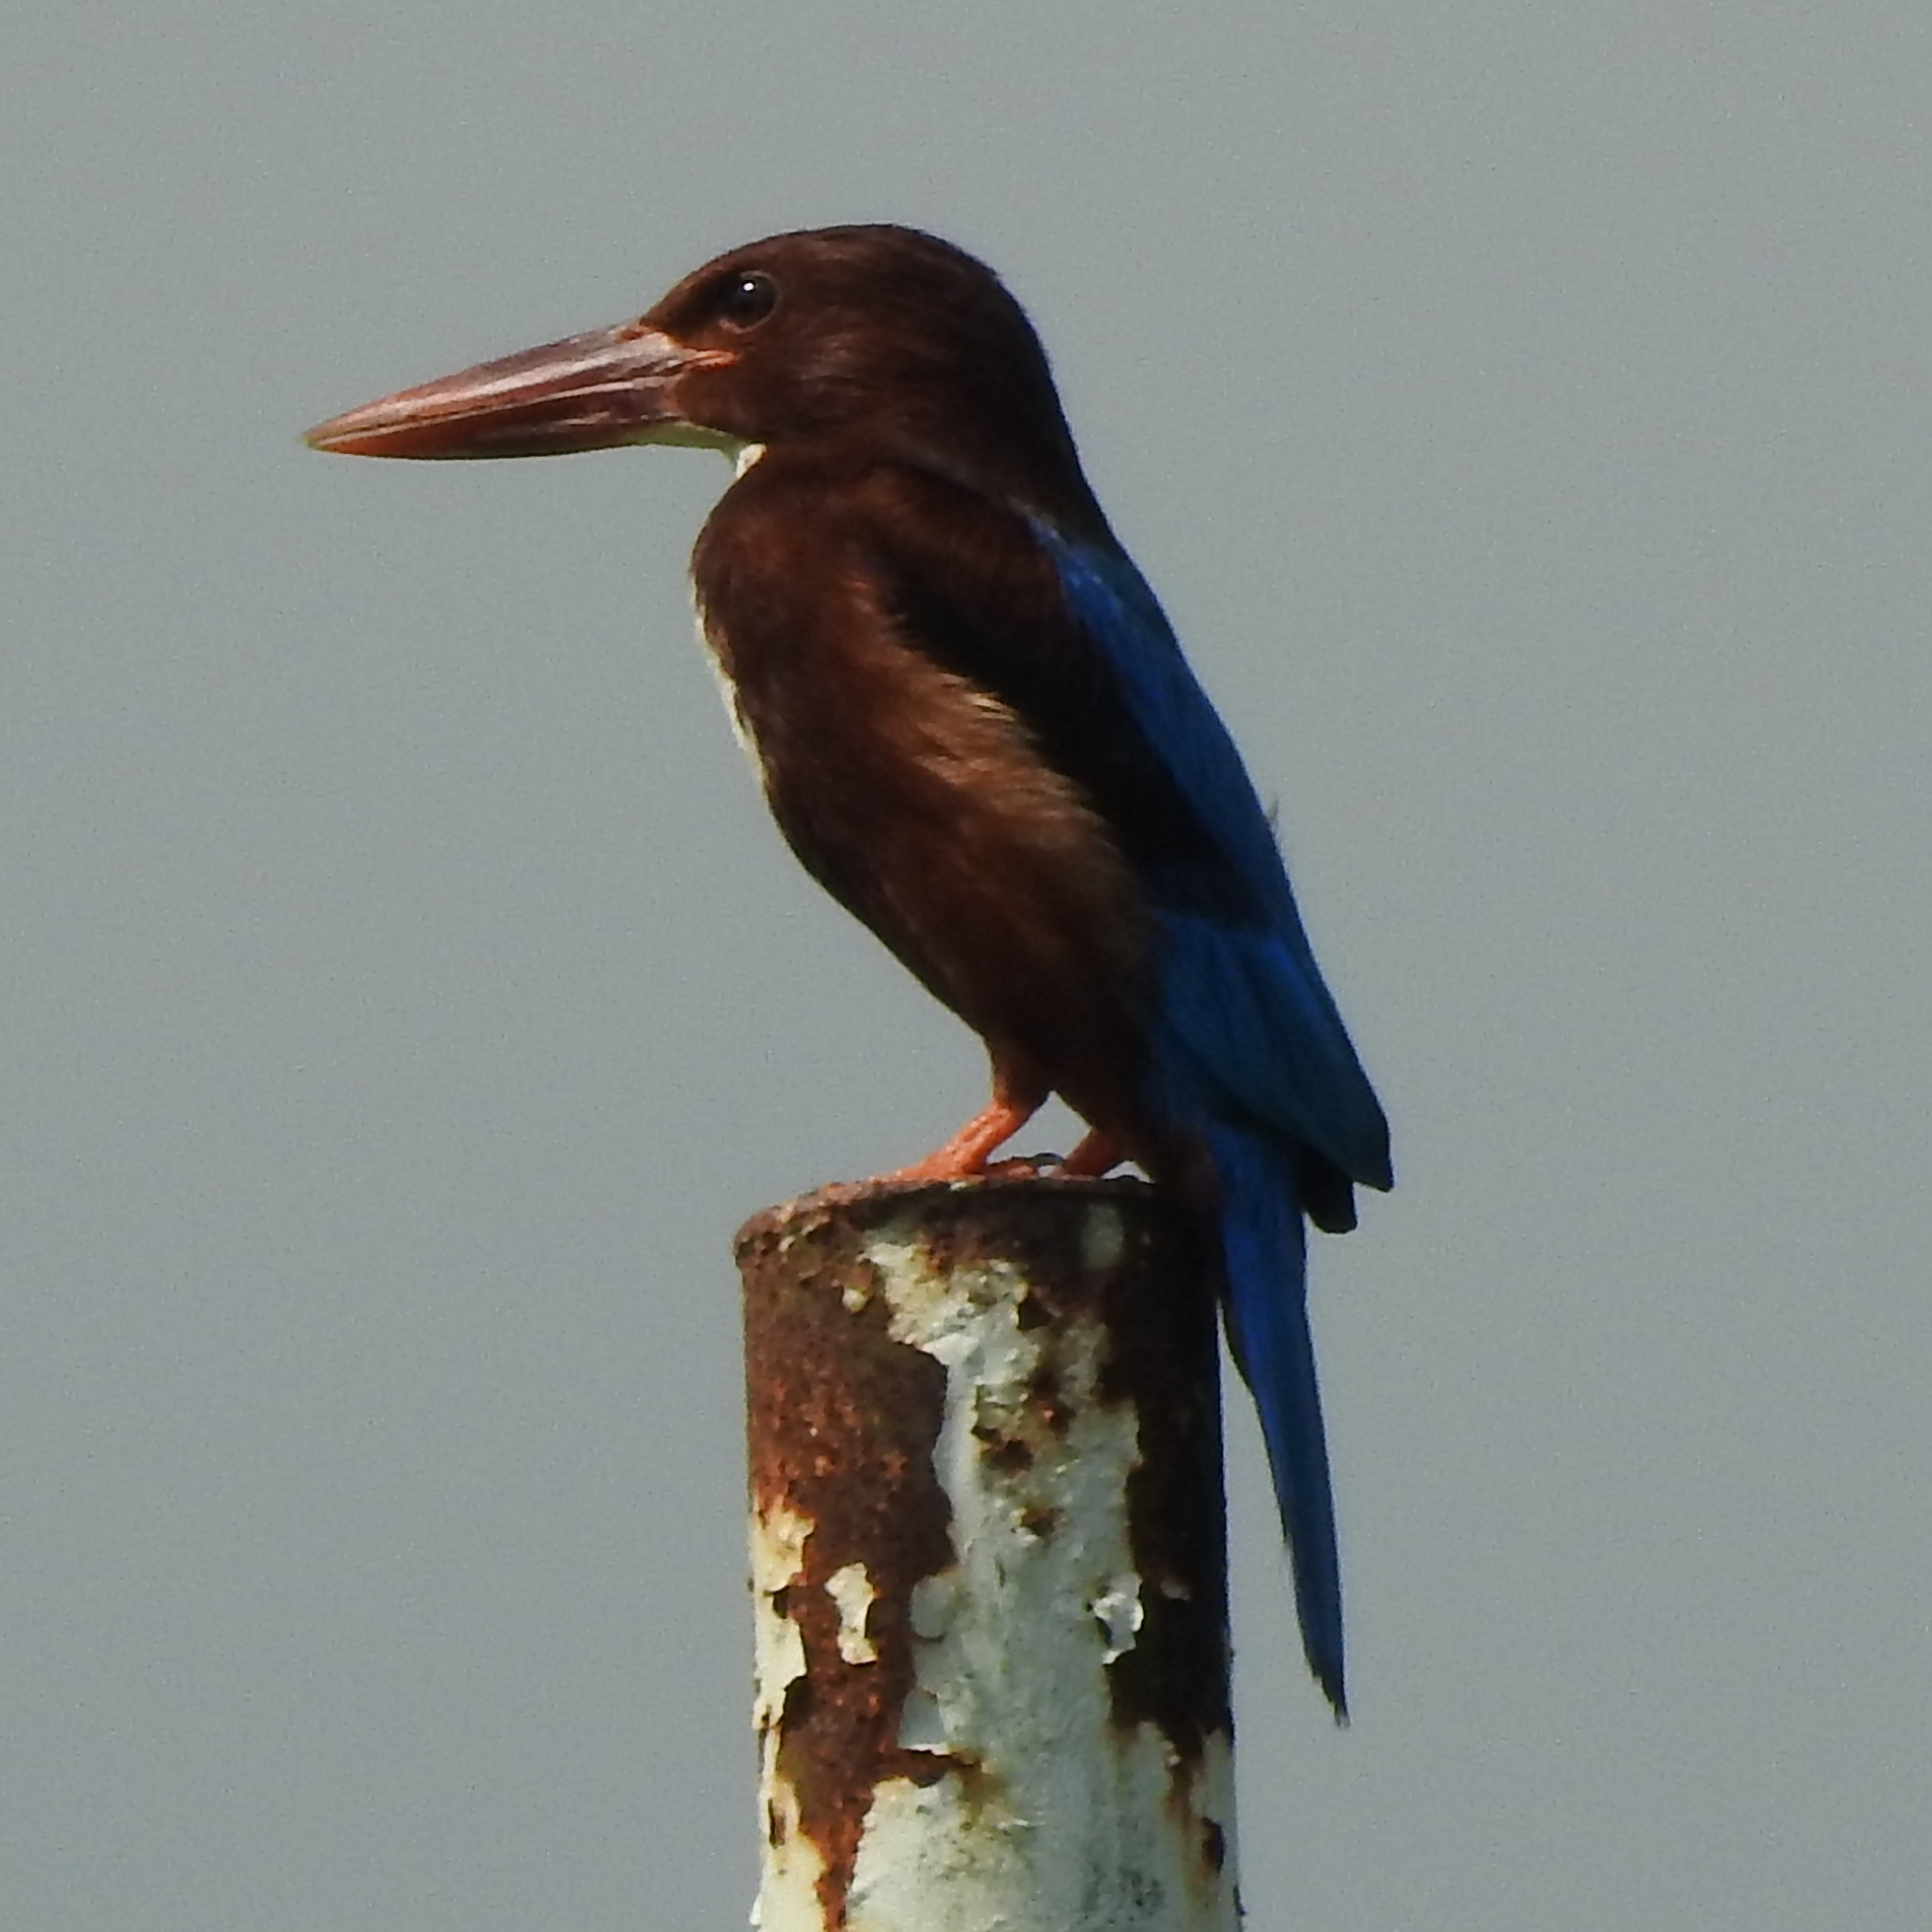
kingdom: Animalia
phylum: Chordata
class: Aves
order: Coraciiformes
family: Alcedinidae
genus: Halcyon
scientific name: Halcyon smyrnensis
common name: White-throated kingfisher
